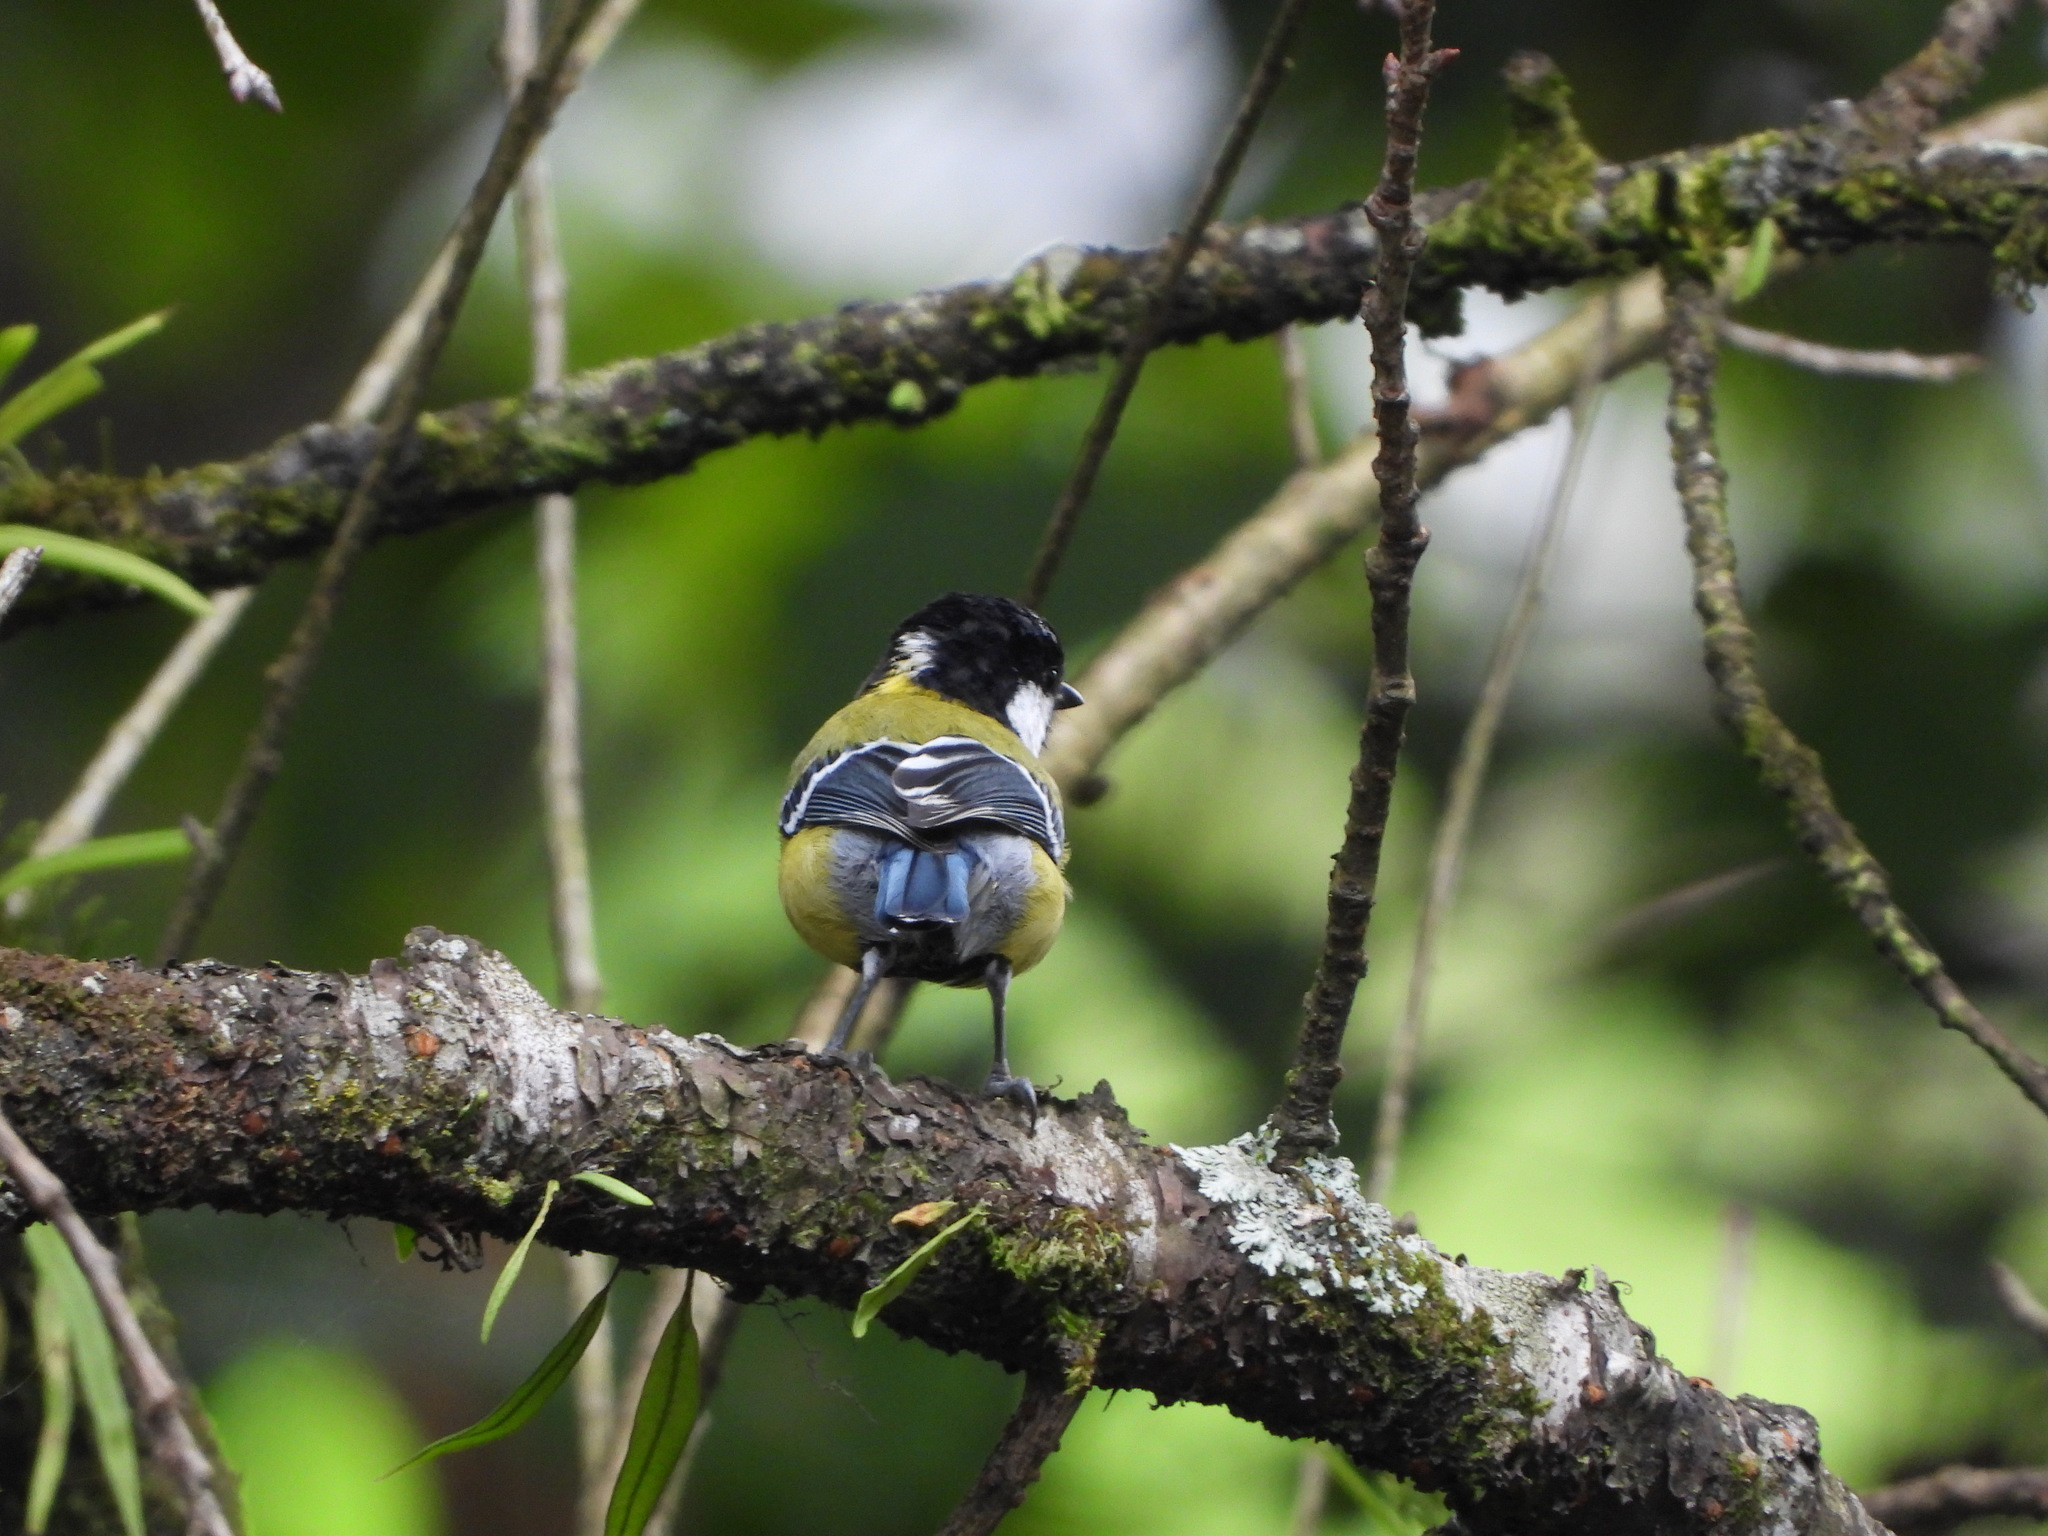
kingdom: Animalia
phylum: Chordata
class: Aves
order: Passeriformes
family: Paridae
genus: Parus
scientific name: Parus monticolus
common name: Green-backed tit
